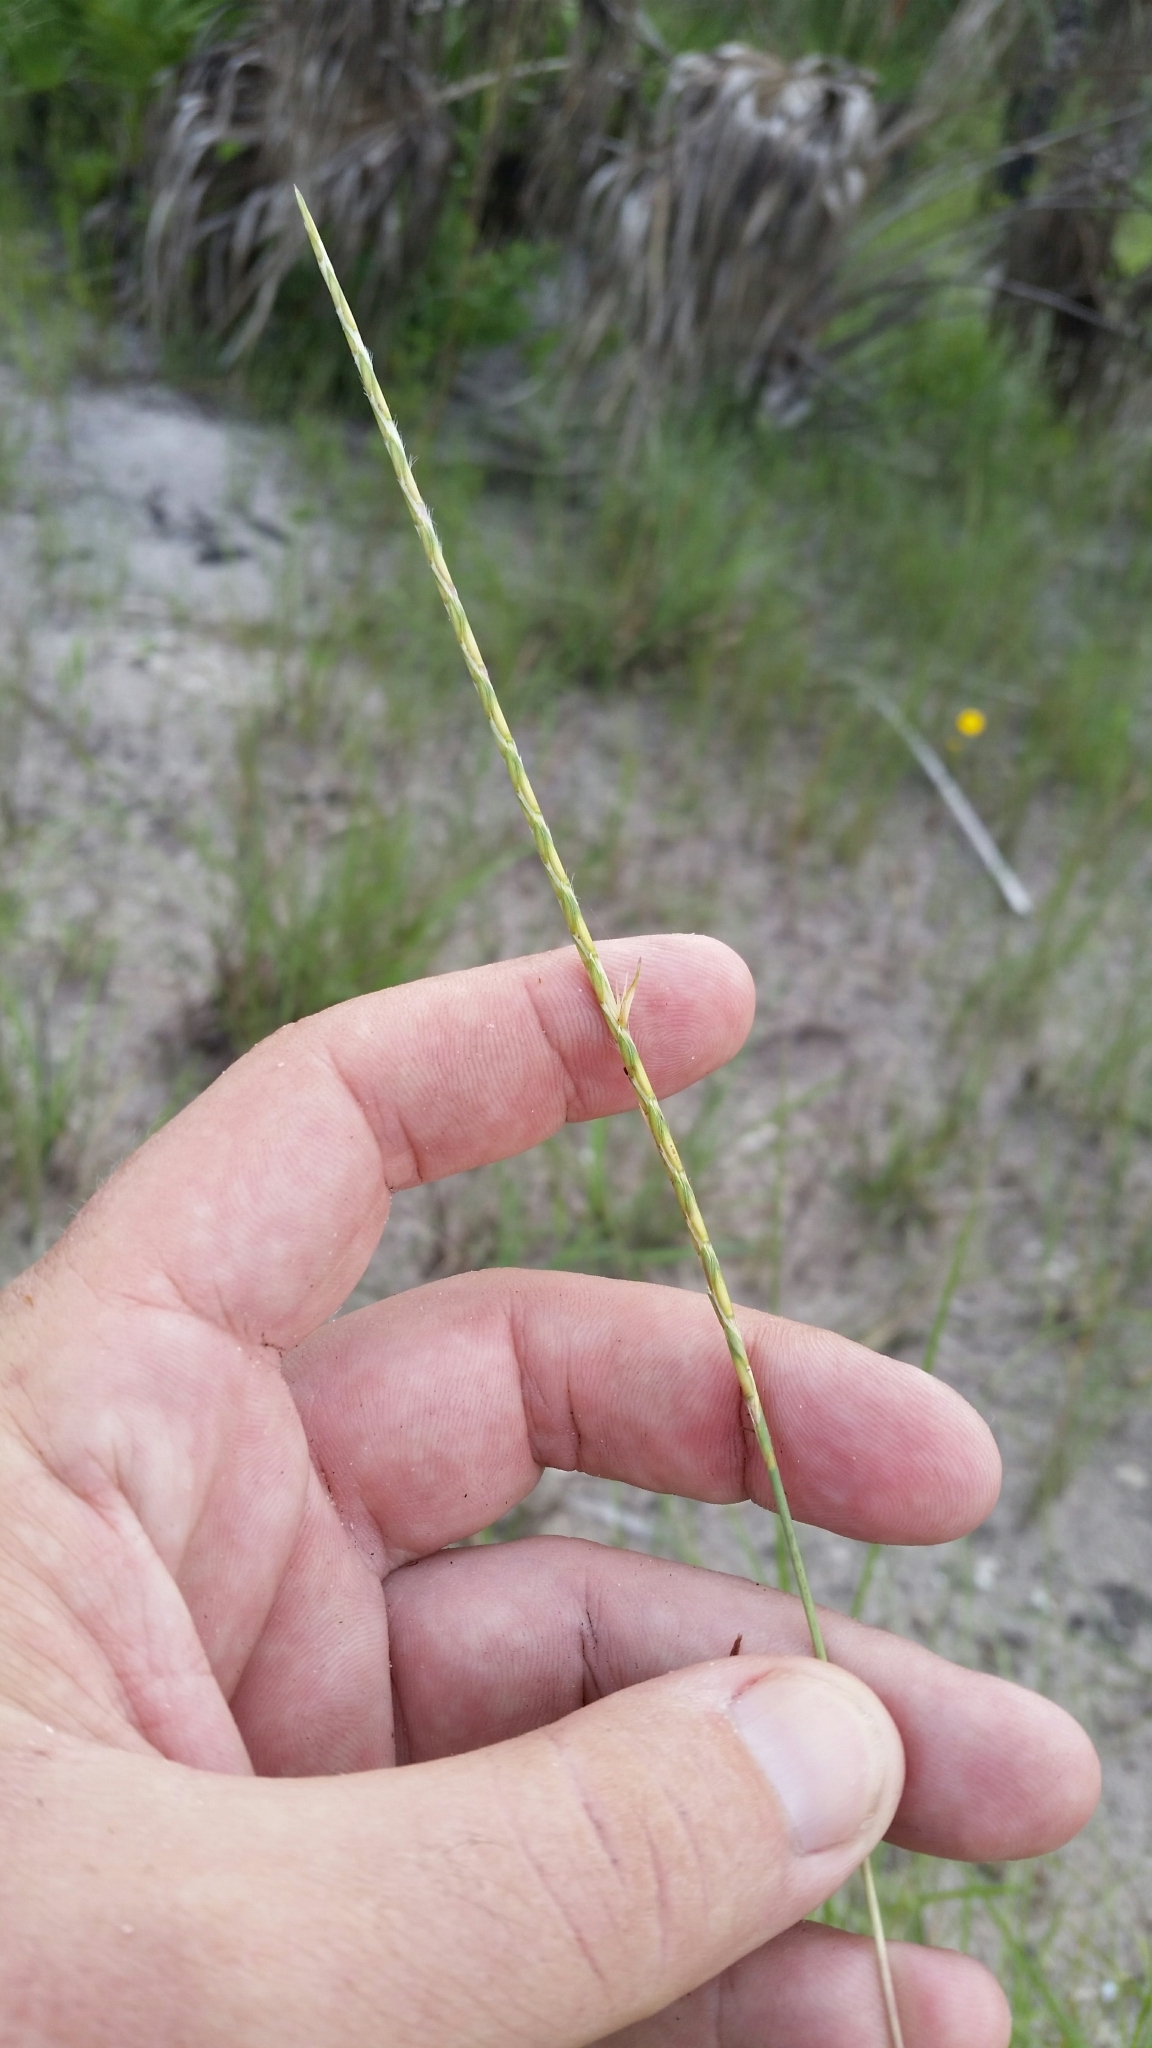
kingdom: Plantae
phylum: Tracheophyta
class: Liliopsida
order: Poales
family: Poaceae
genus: Elionurus
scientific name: Elionurus tripsacoides
